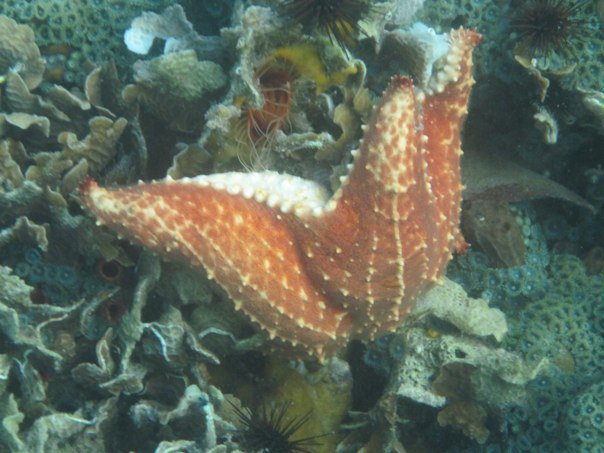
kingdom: Animalia
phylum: Echinodermata
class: Asteroidea
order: Valvatida
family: Oreasteridae
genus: Oreaster
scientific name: Oreaster reticulatus
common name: Cushion sea star
